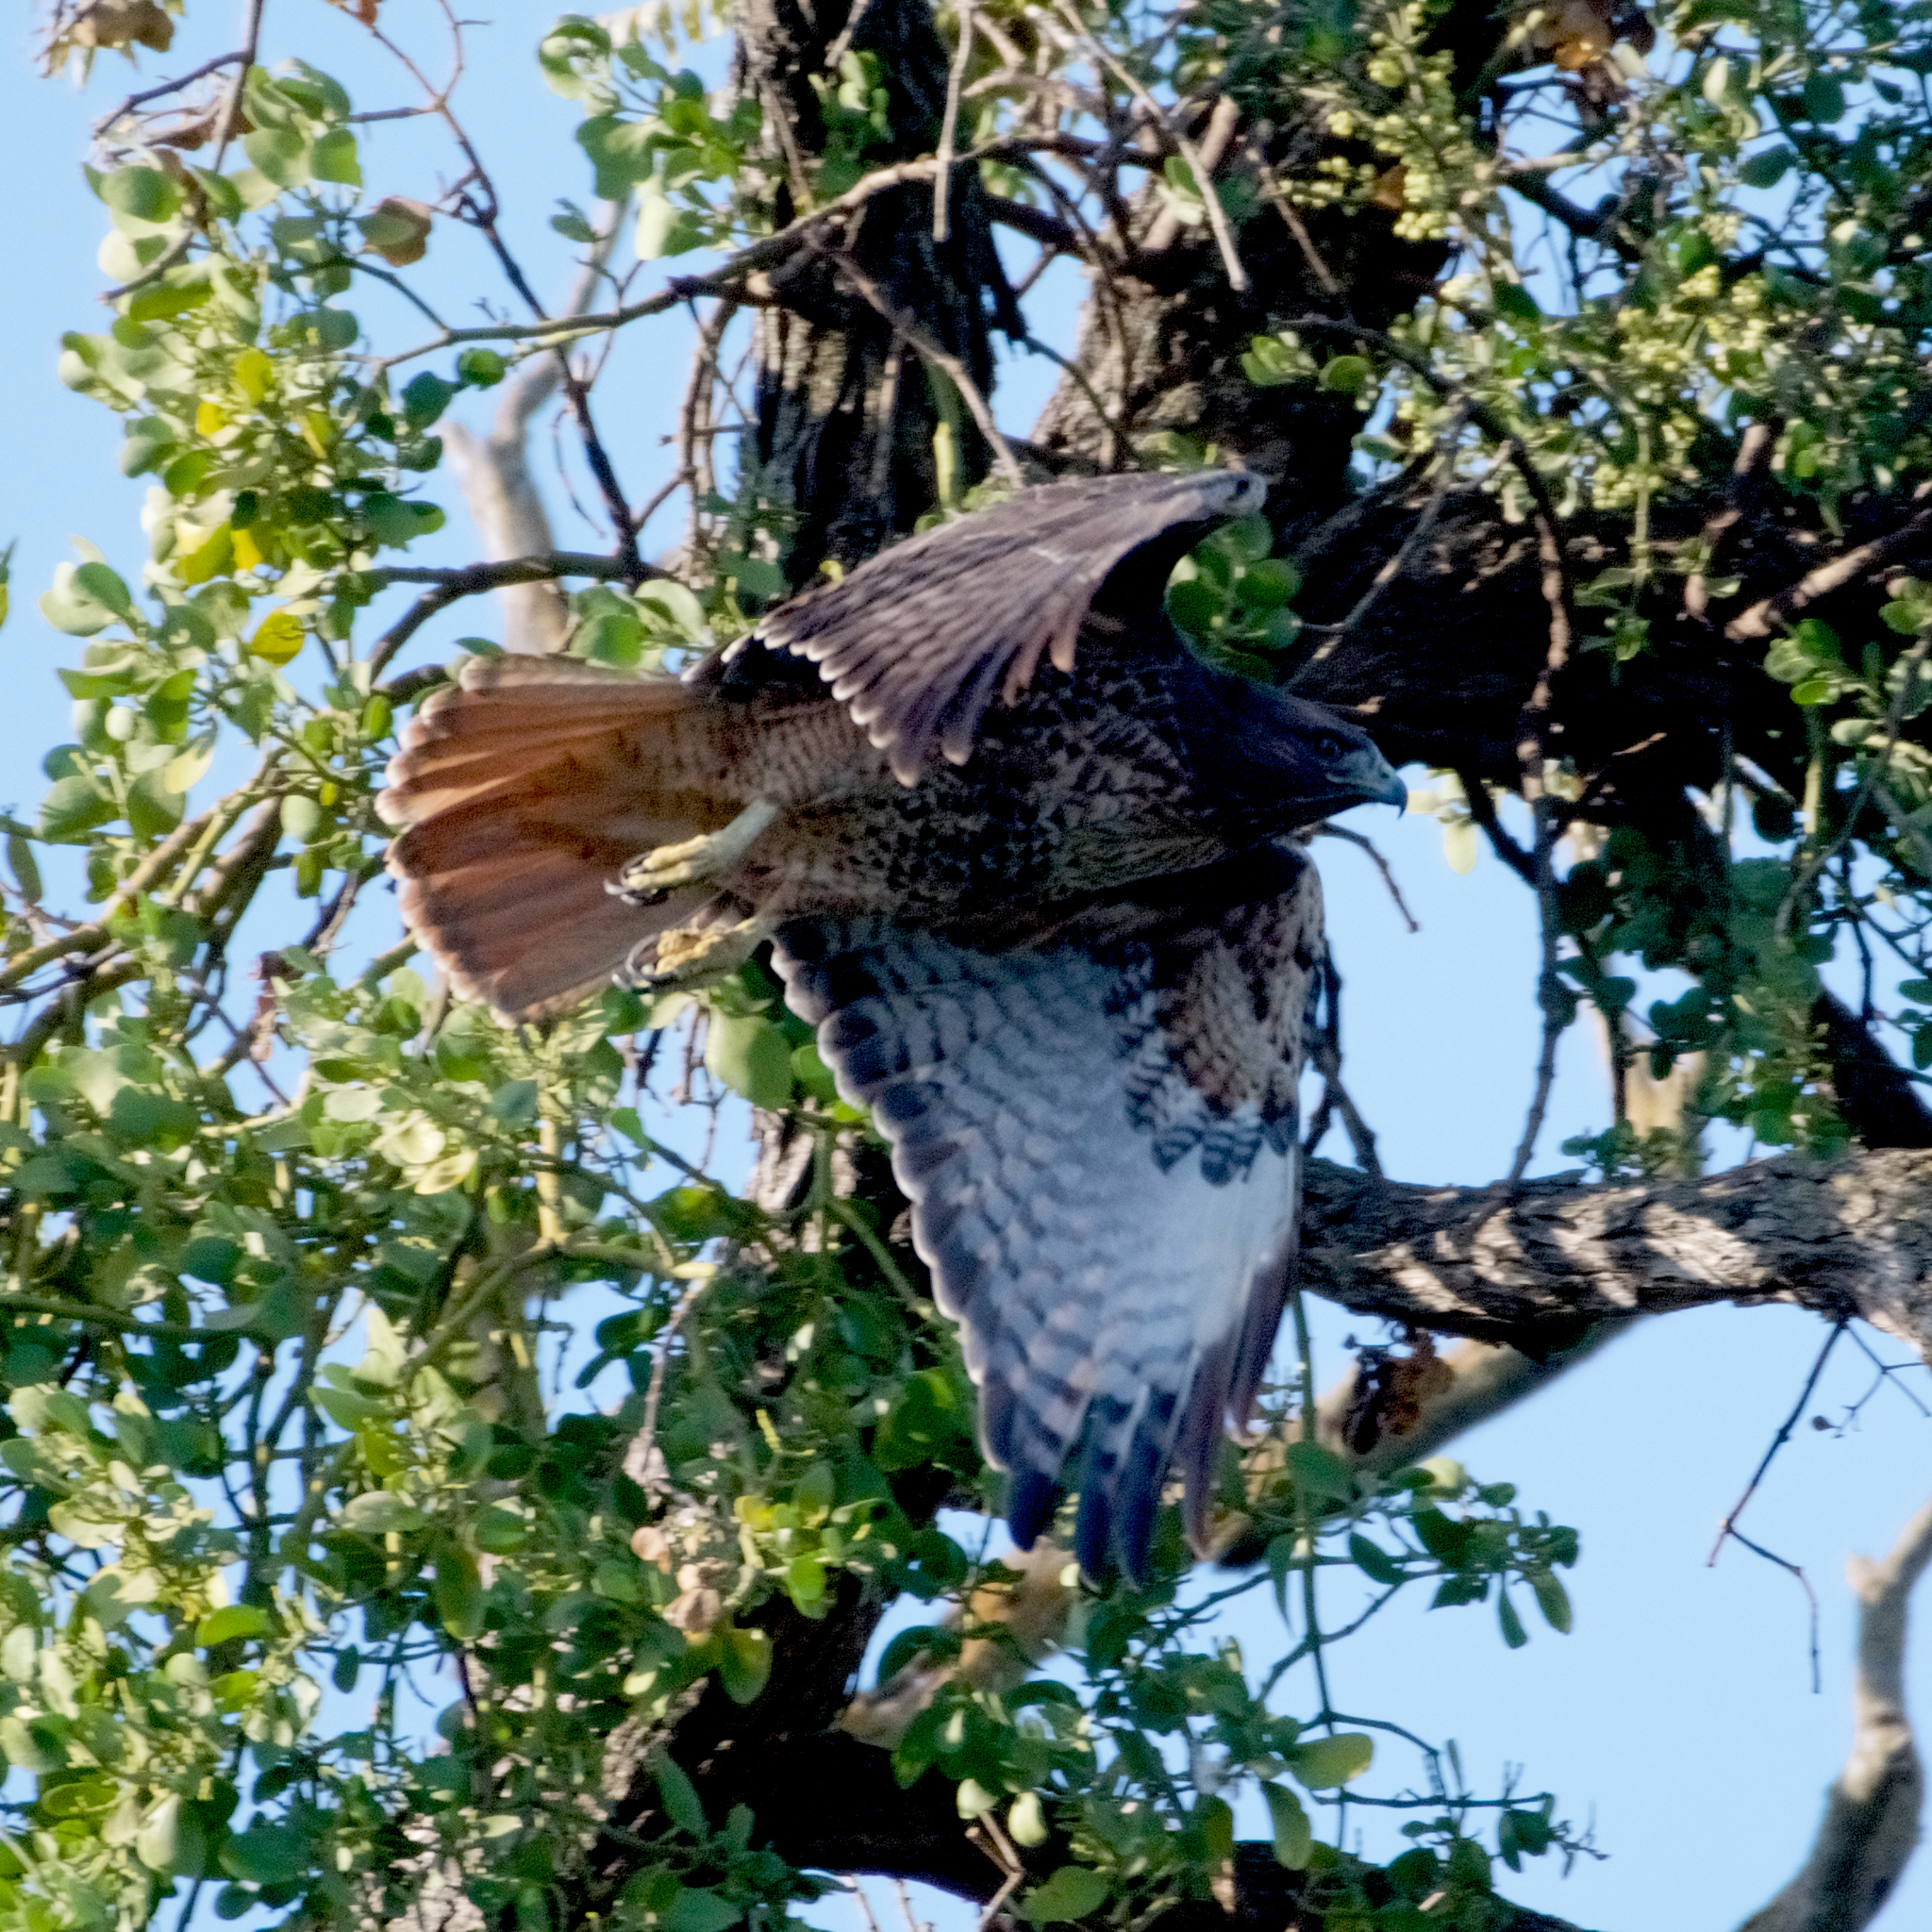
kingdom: Animalia
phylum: Chordata
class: Aves
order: Accipitriformes
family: Accipitridae
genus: Buteo
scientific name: Buteo jamaicensis
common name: Red-tailed hawk
